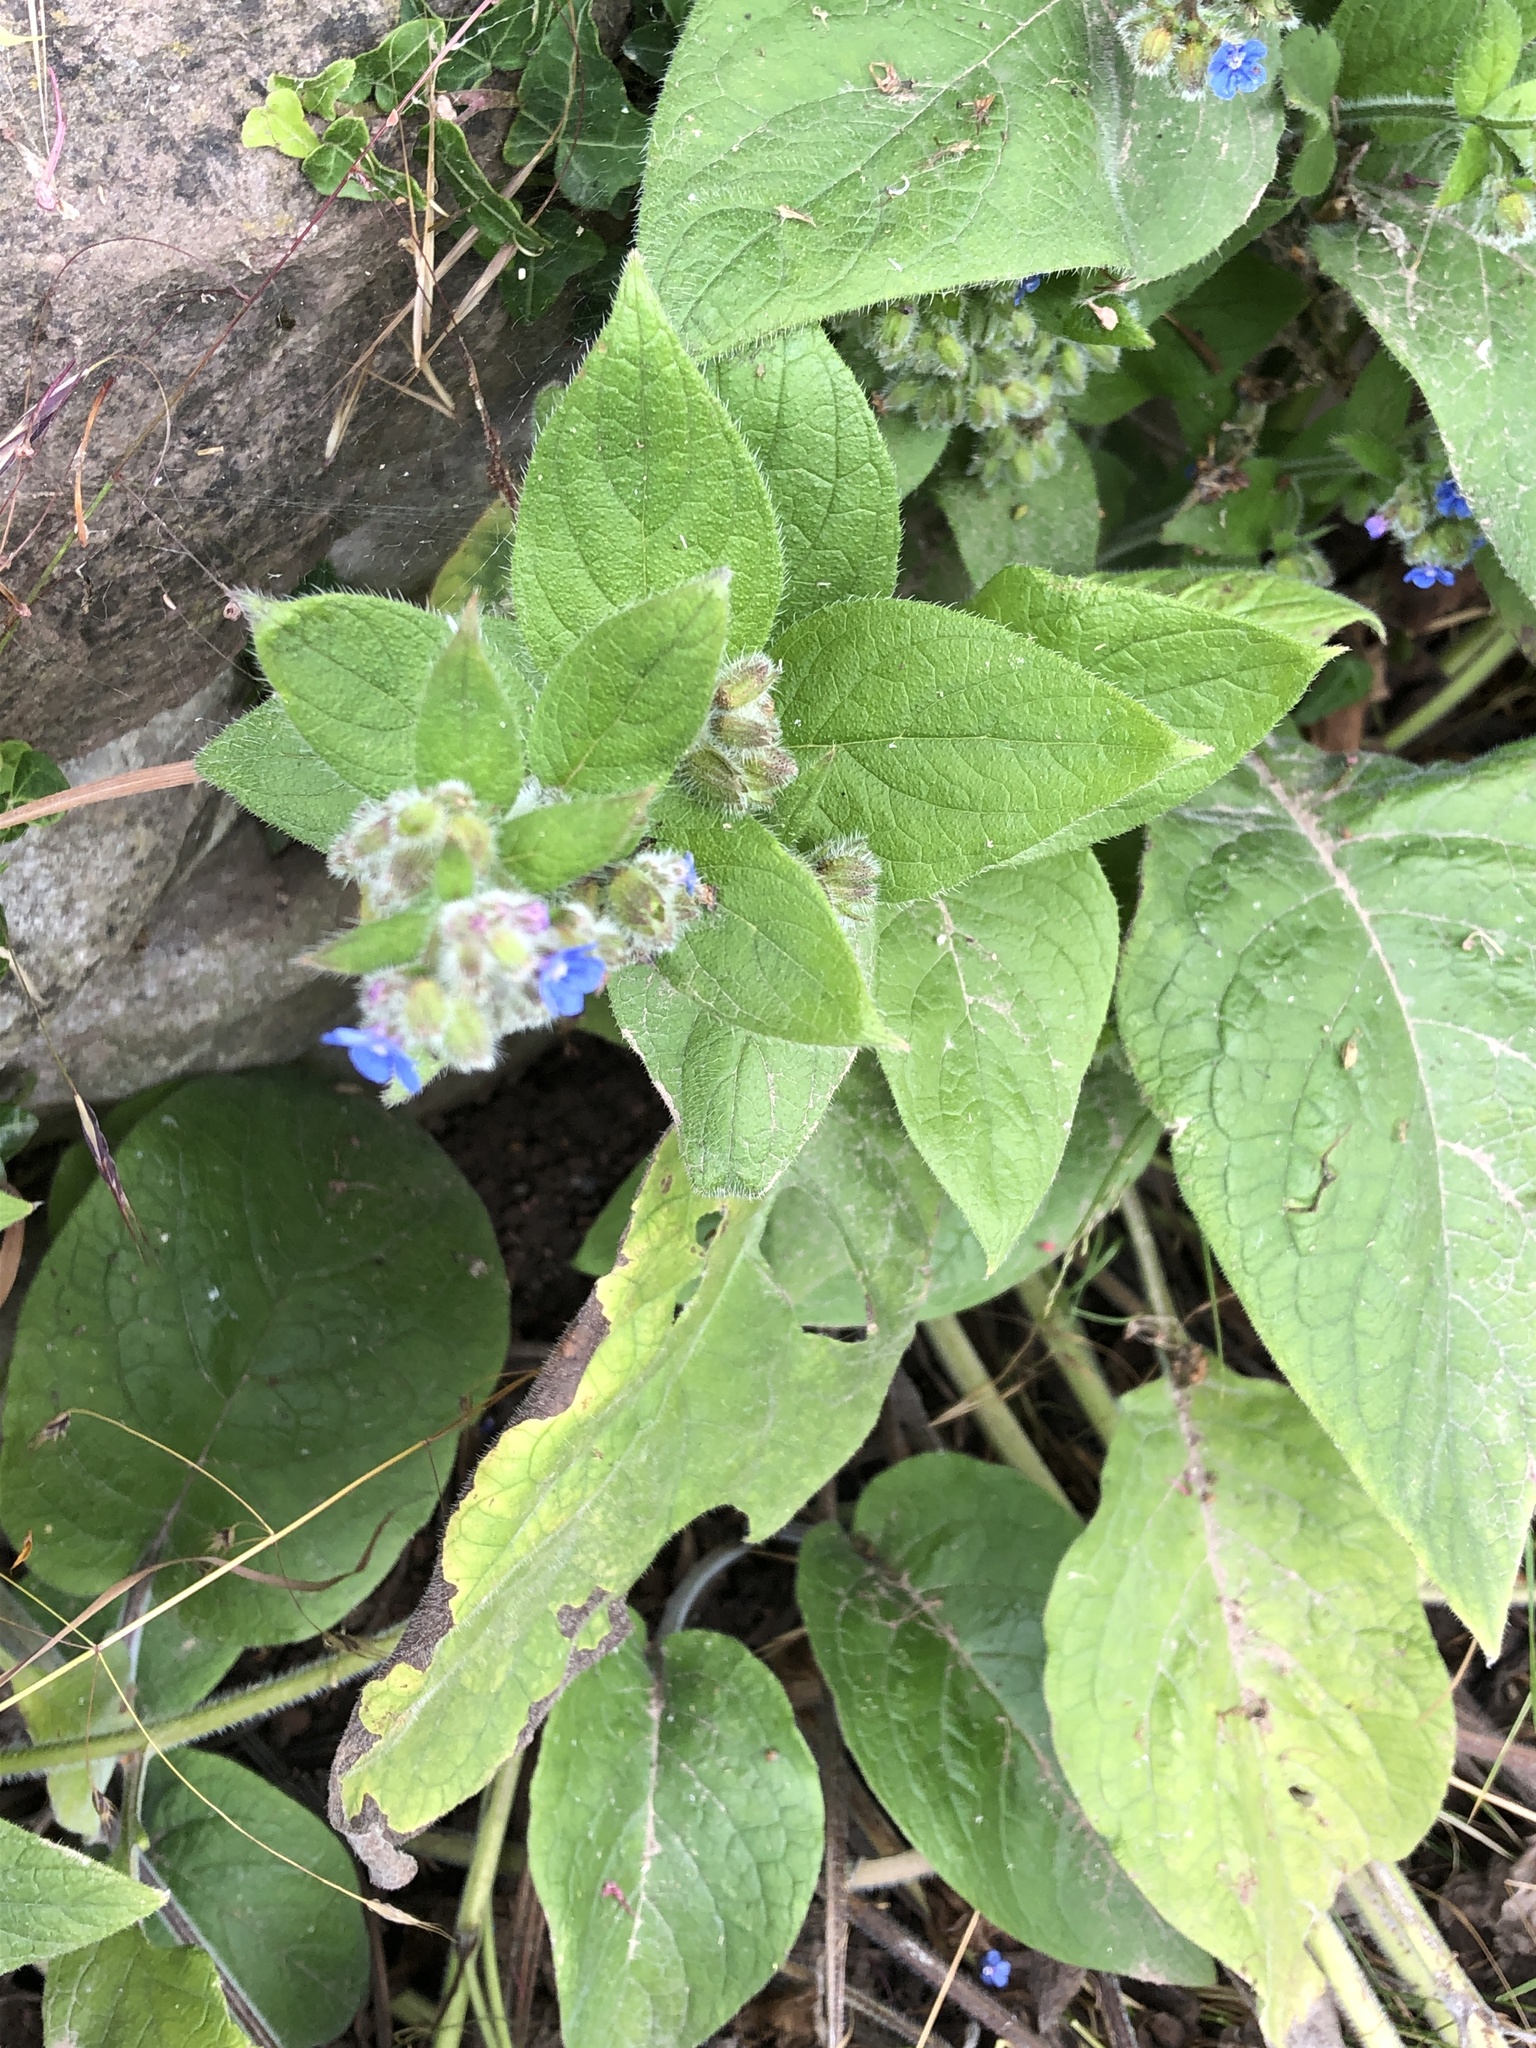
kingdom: Plantae
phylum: Tracheophyta
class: Magnoliopsida
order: Boraginales
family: Boraginaceae
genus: Pentaglottis
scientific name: Pentaglottis sempervirens
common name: Green alkanet
